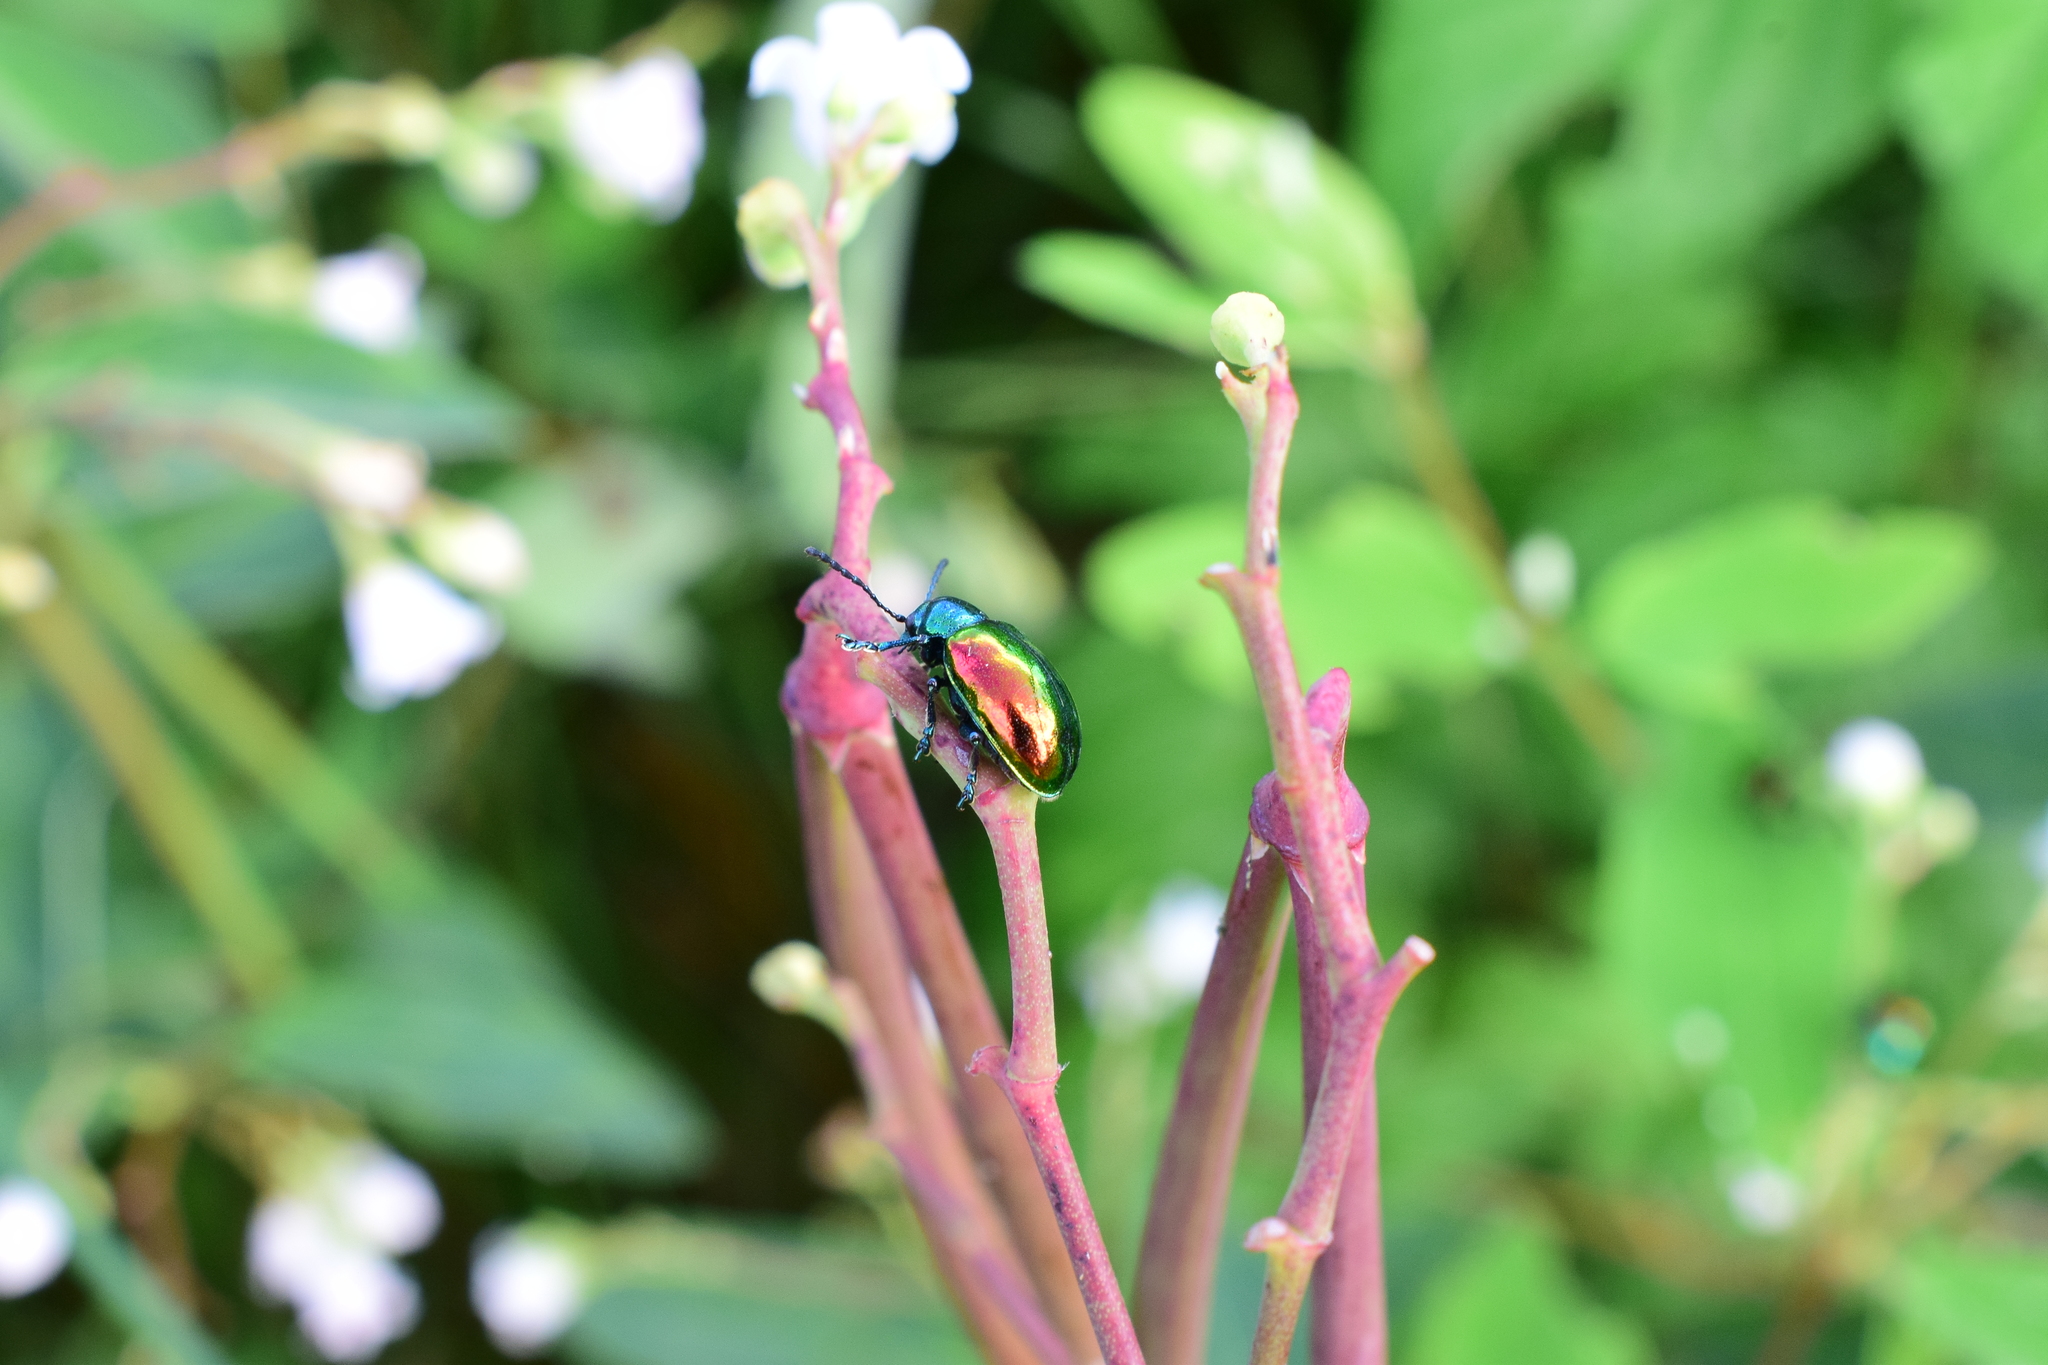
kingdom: Animalia
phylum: Arthropoda
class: Insecta
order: Coleoptera
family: Chrysomelidae
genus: Chrysochus
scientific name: Chrysochus auratus
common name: Dogbane leaf beetle
